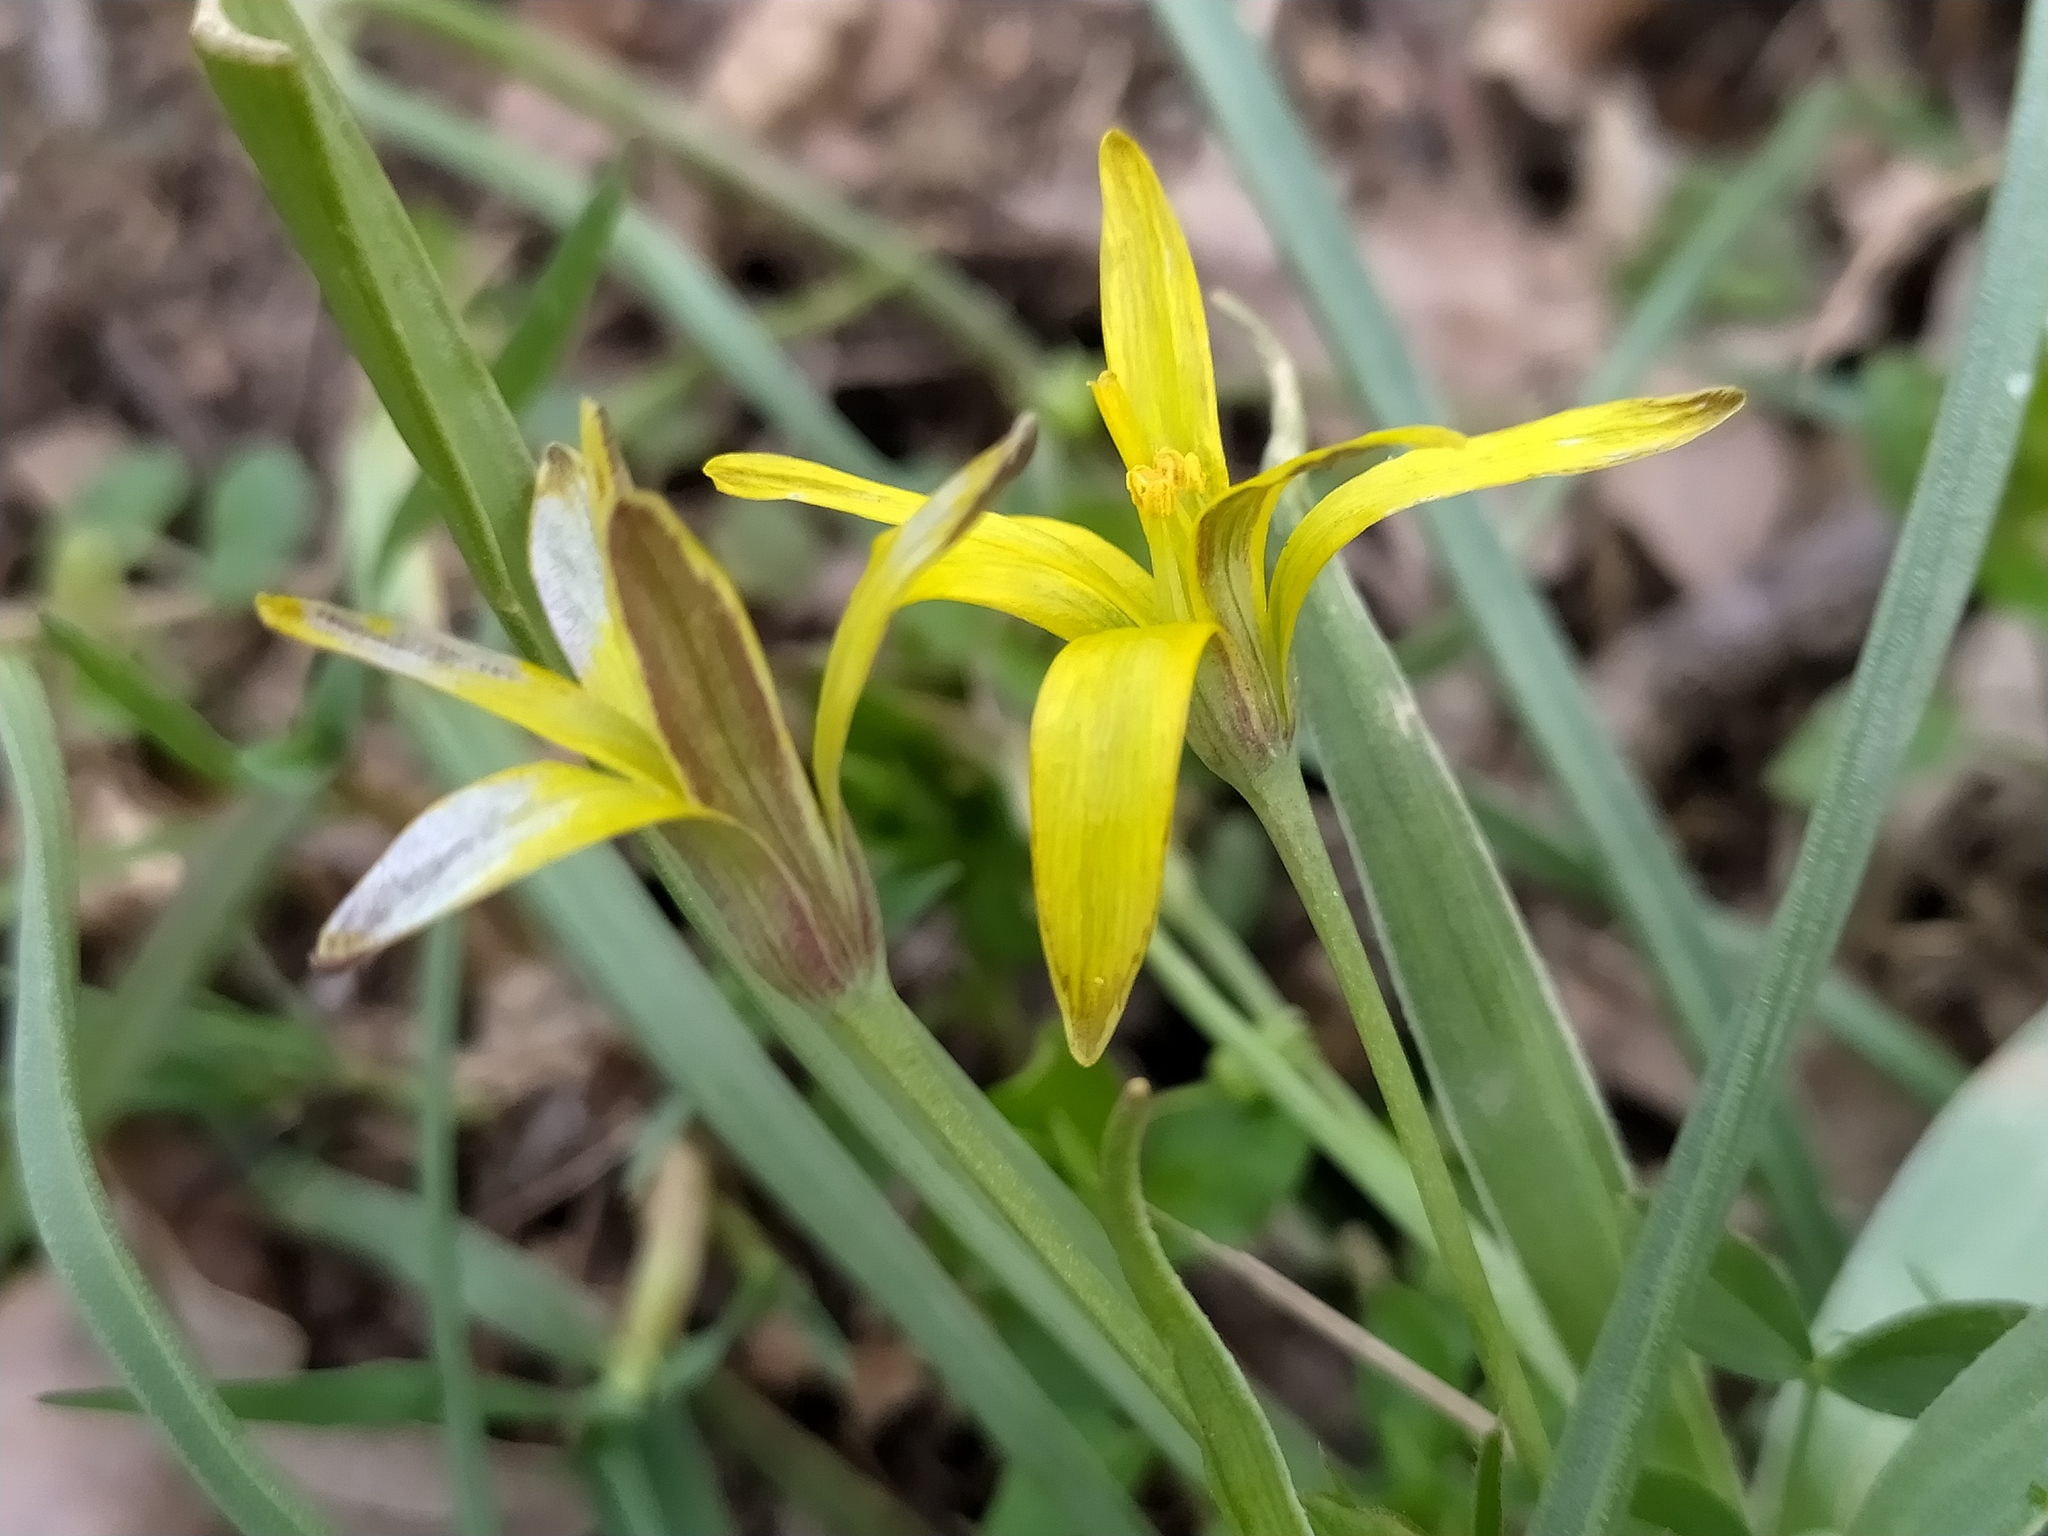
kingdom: Plantae
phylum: Tracheophyta
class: Liliopsida
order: Liliales
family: Liliaceae
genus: Gagea
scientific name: Gagea pratensis
